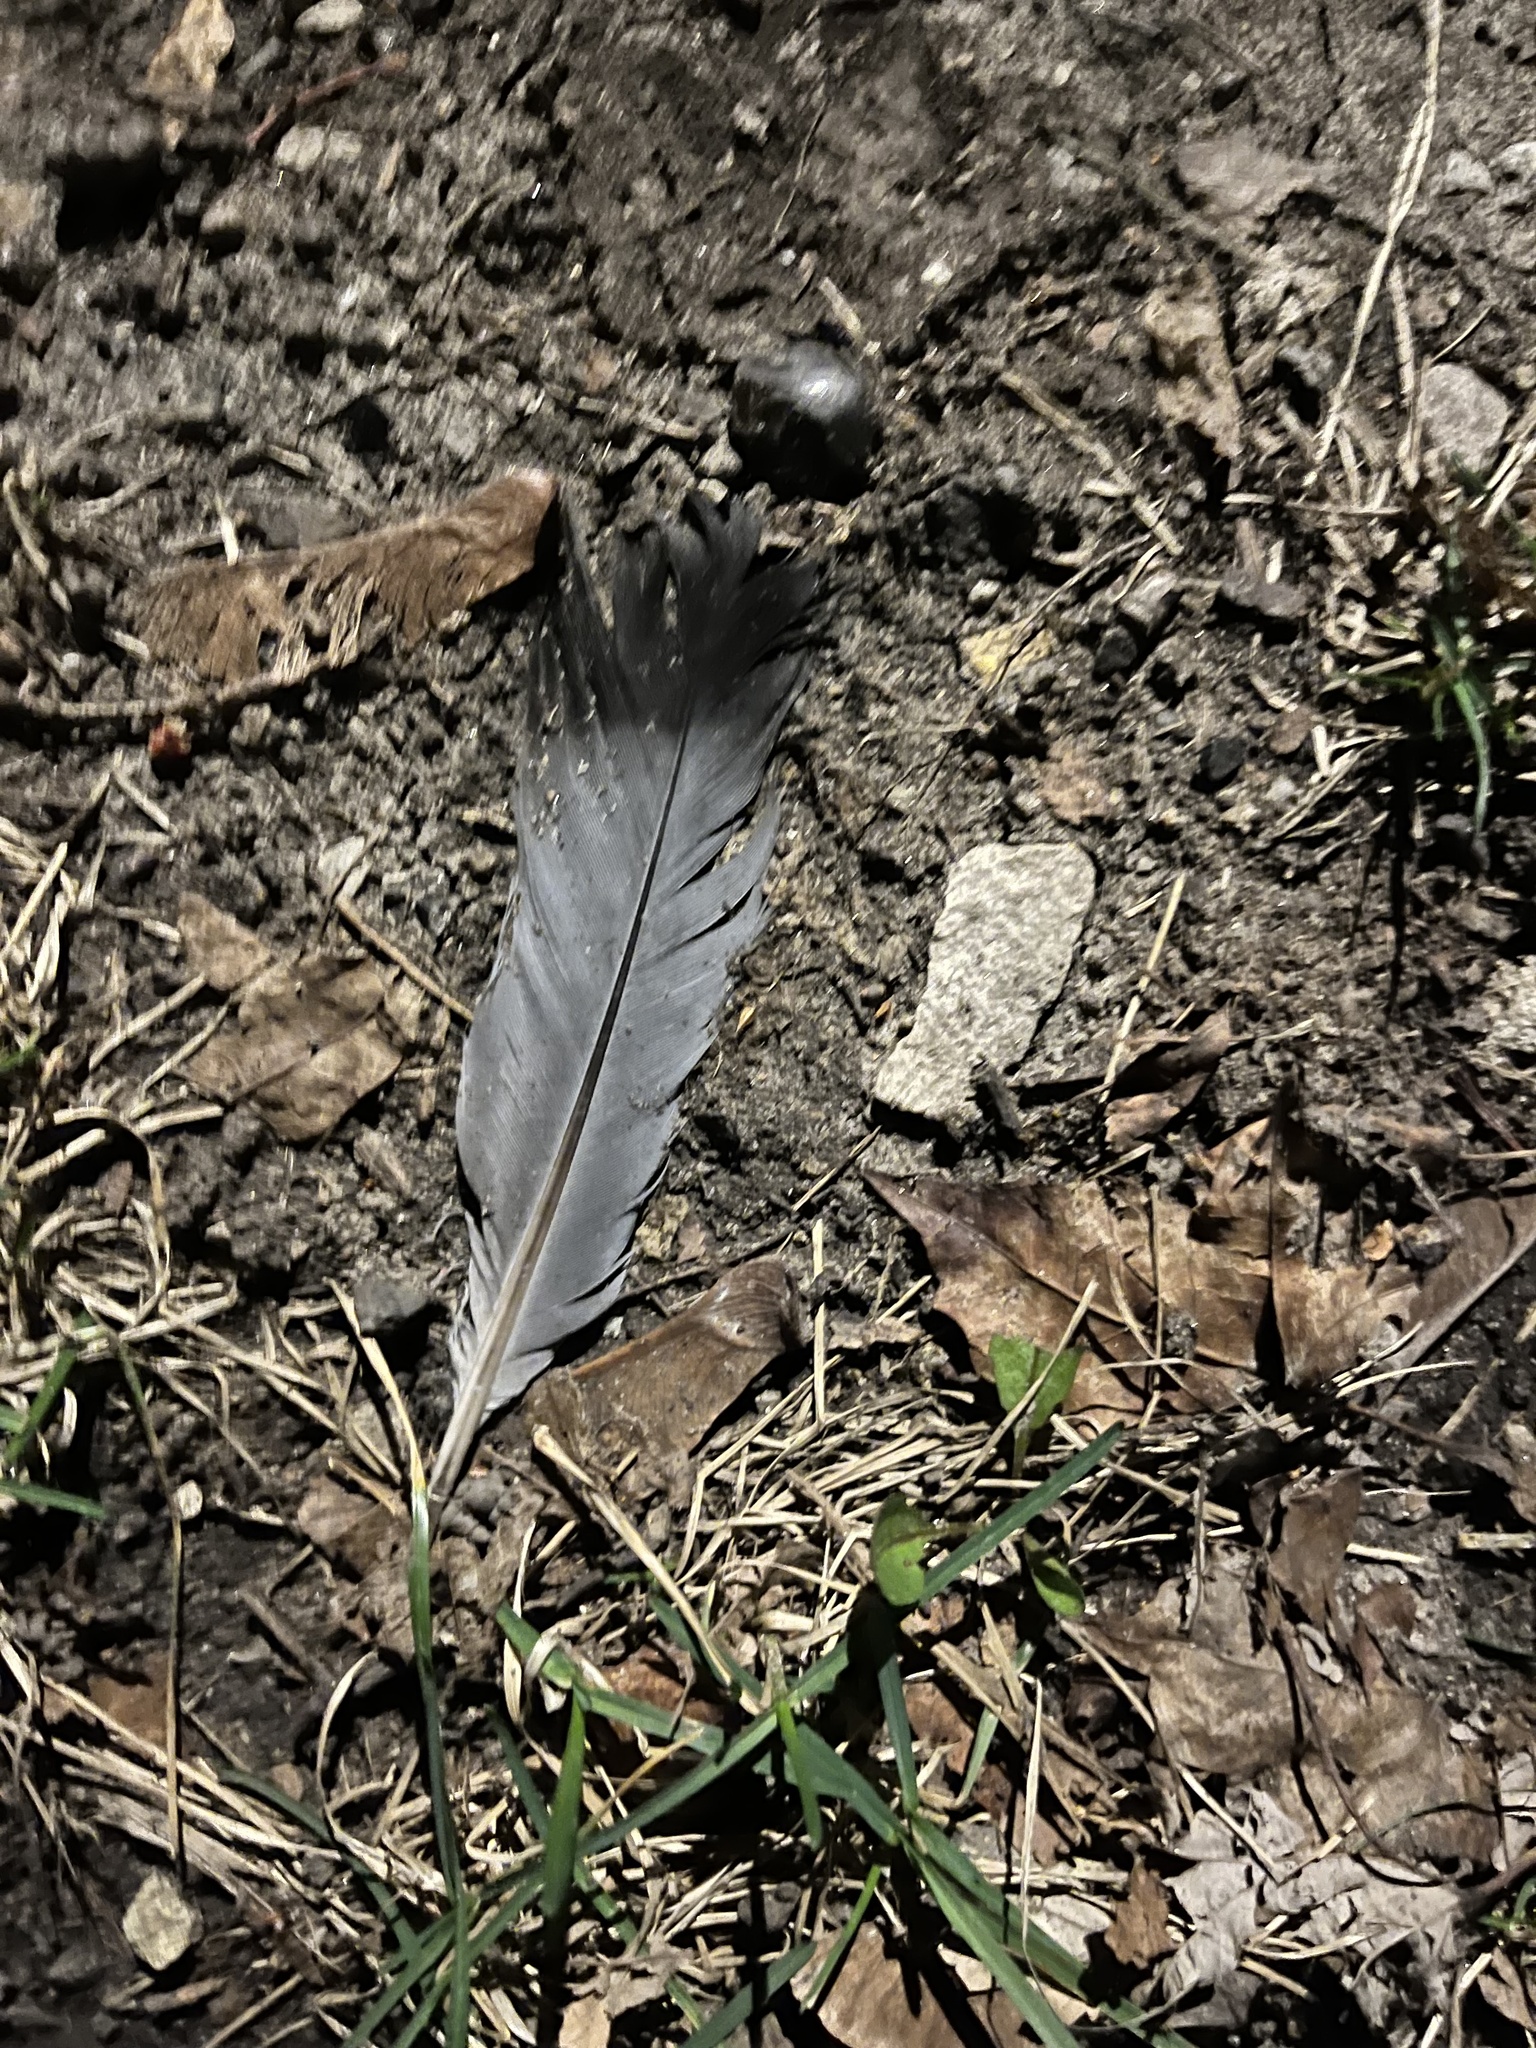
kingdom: Animalia
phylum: Chordata
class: Aves
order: Columbiformes
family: Columbidae
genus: Columba
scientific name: Columba livia
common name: Rock pigeon
